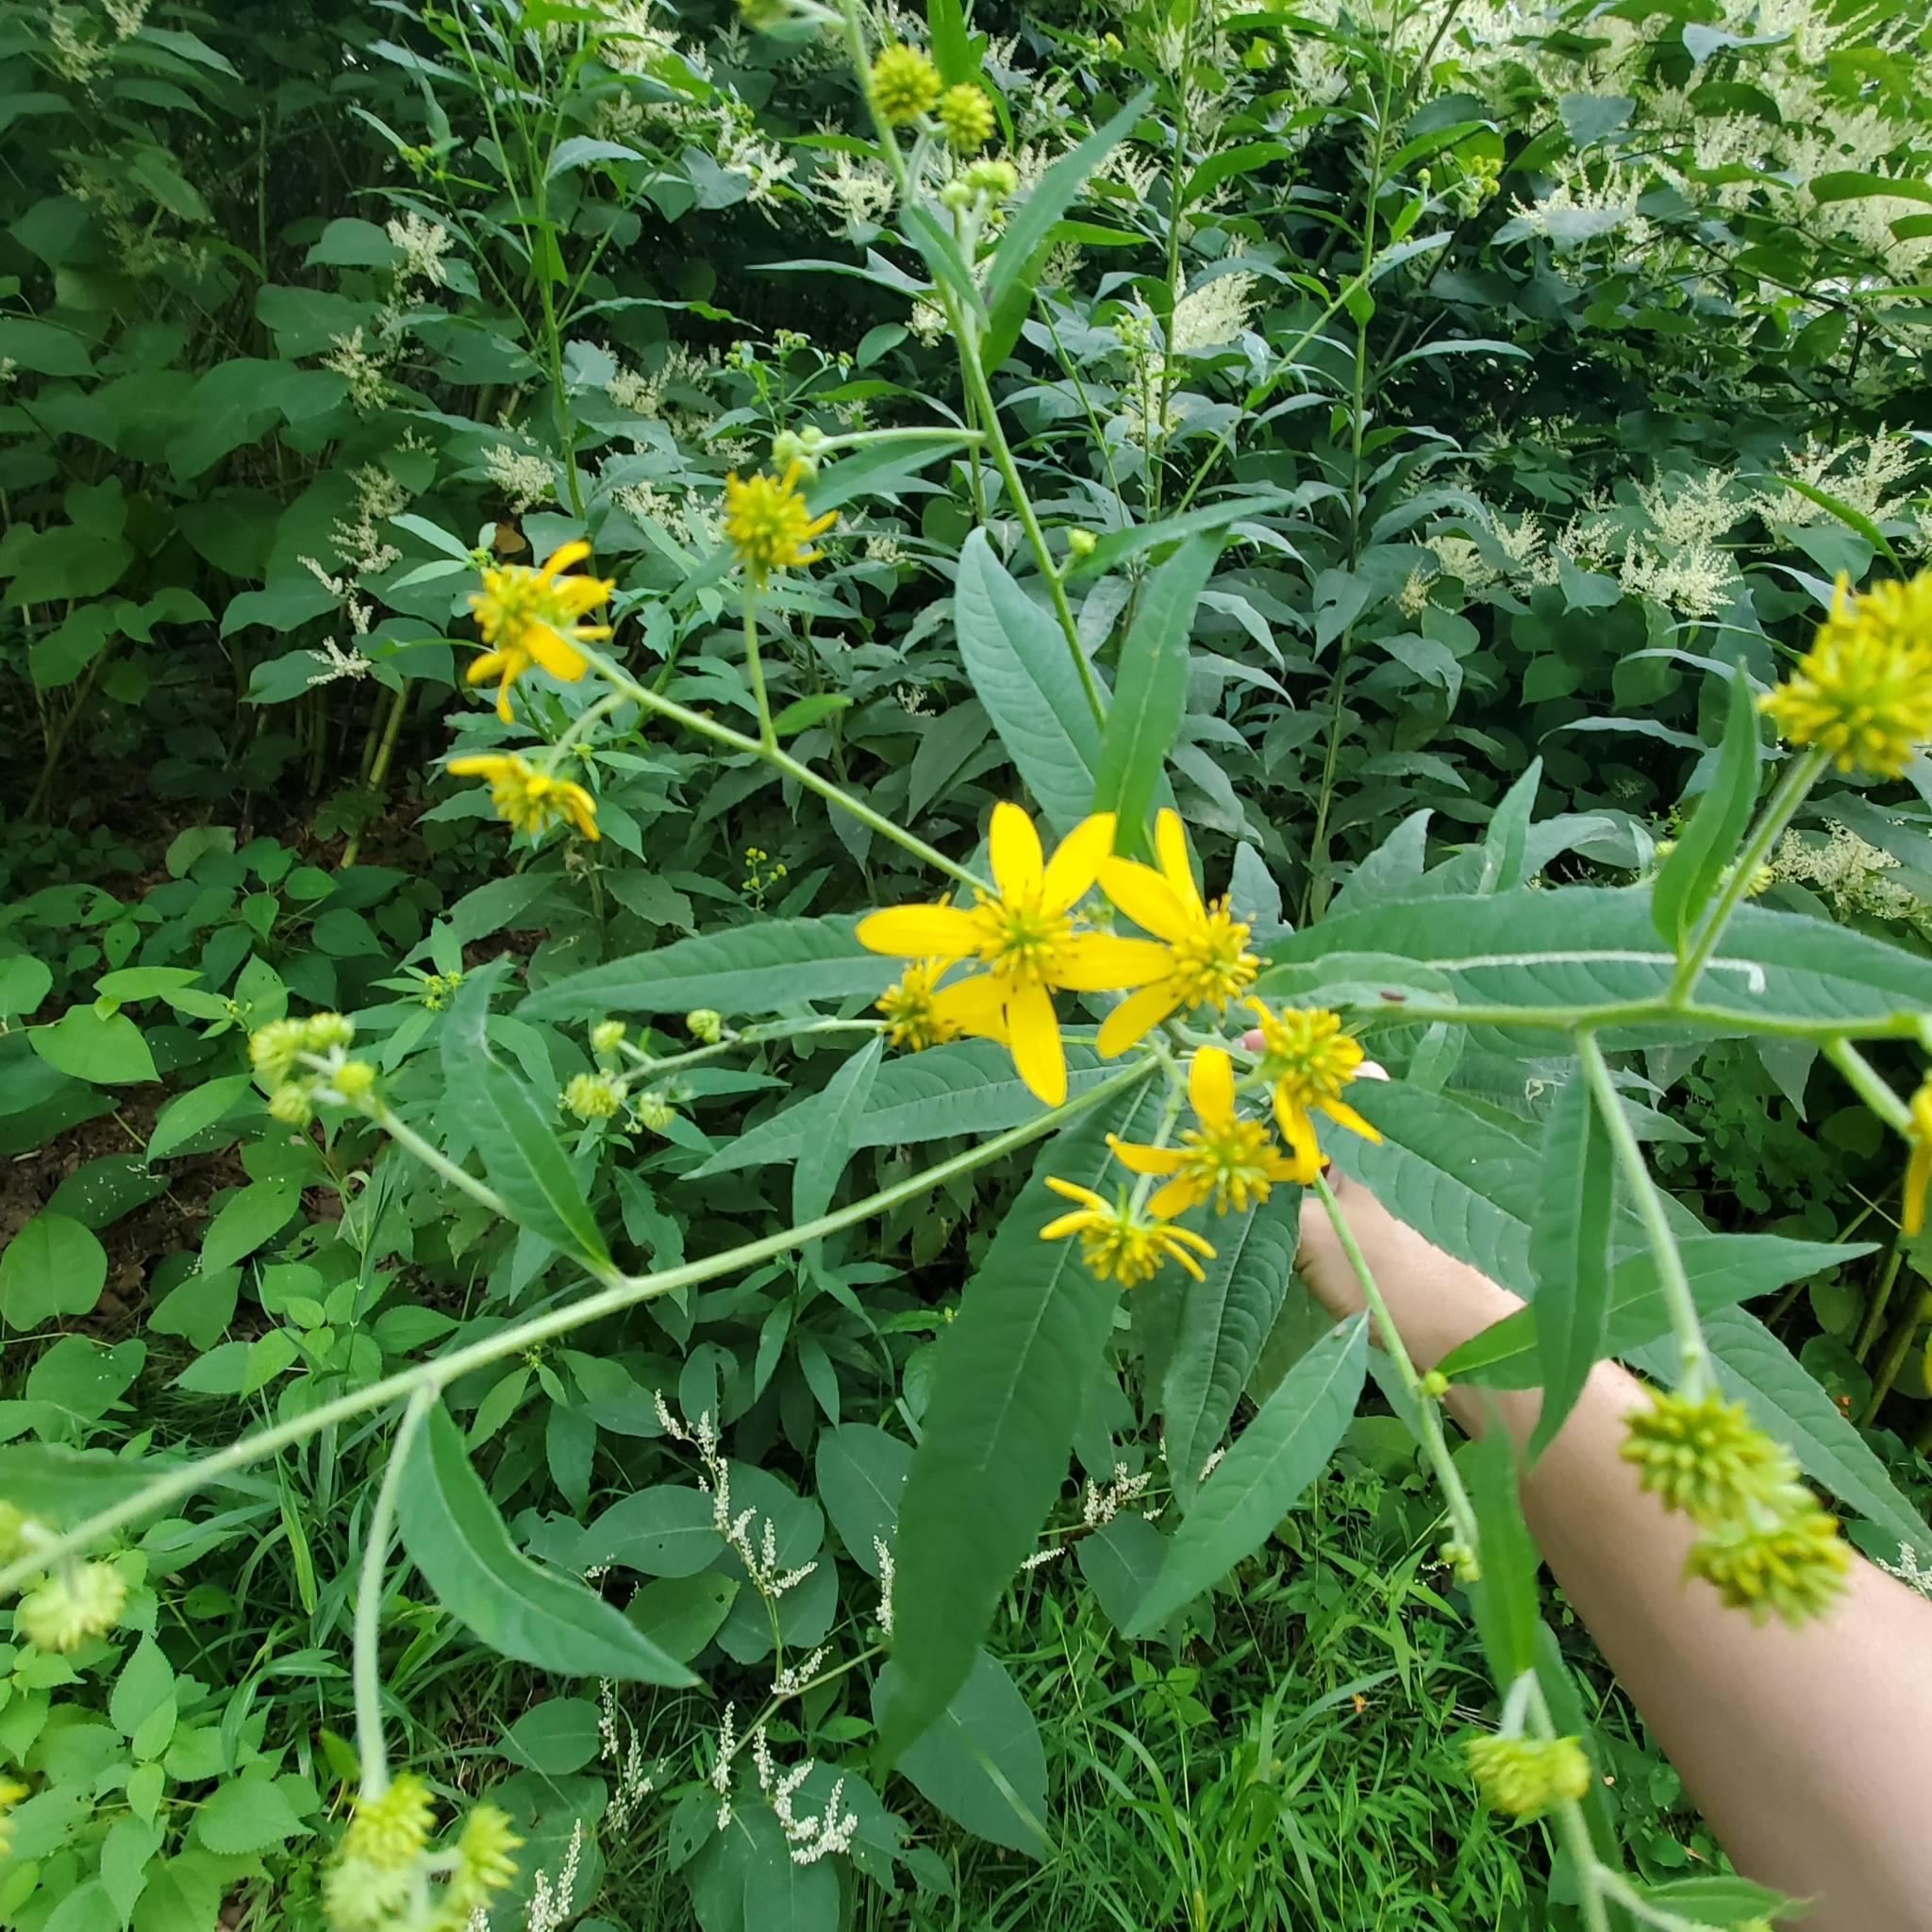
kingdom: Plantae
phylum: Tracheophyta
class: Magnoliopsida
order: Asterales
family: Asteraceae
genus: Verbesina
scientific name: Verbesina alternifolia
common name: Wingstem
